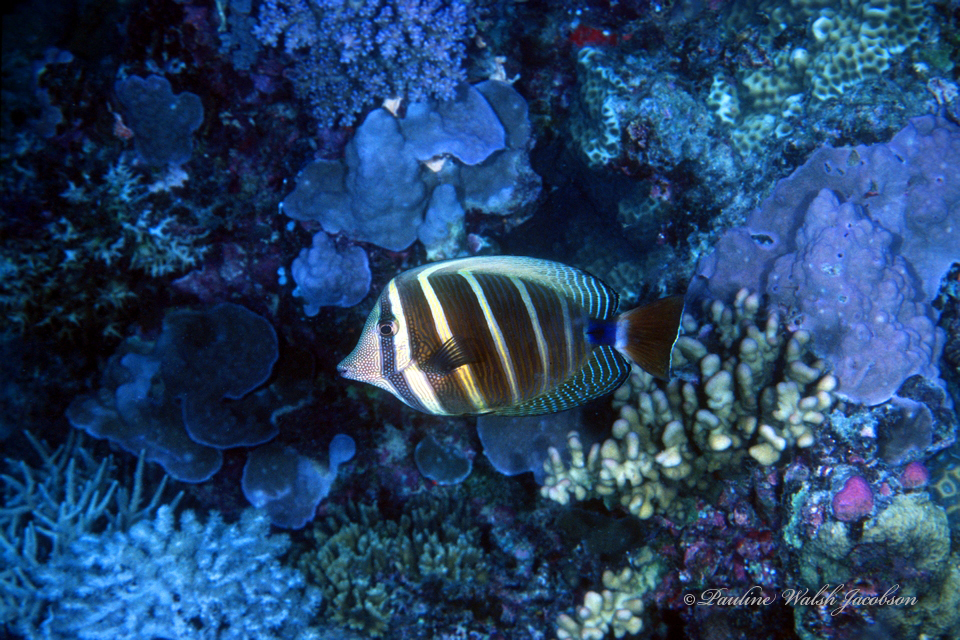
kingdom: Animalia
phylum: Chordata
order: Perciformes
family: Acanthuridae
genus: Zebrasoma
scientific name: Zebrasoma veliferum
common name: Sailfin surgeonfish
